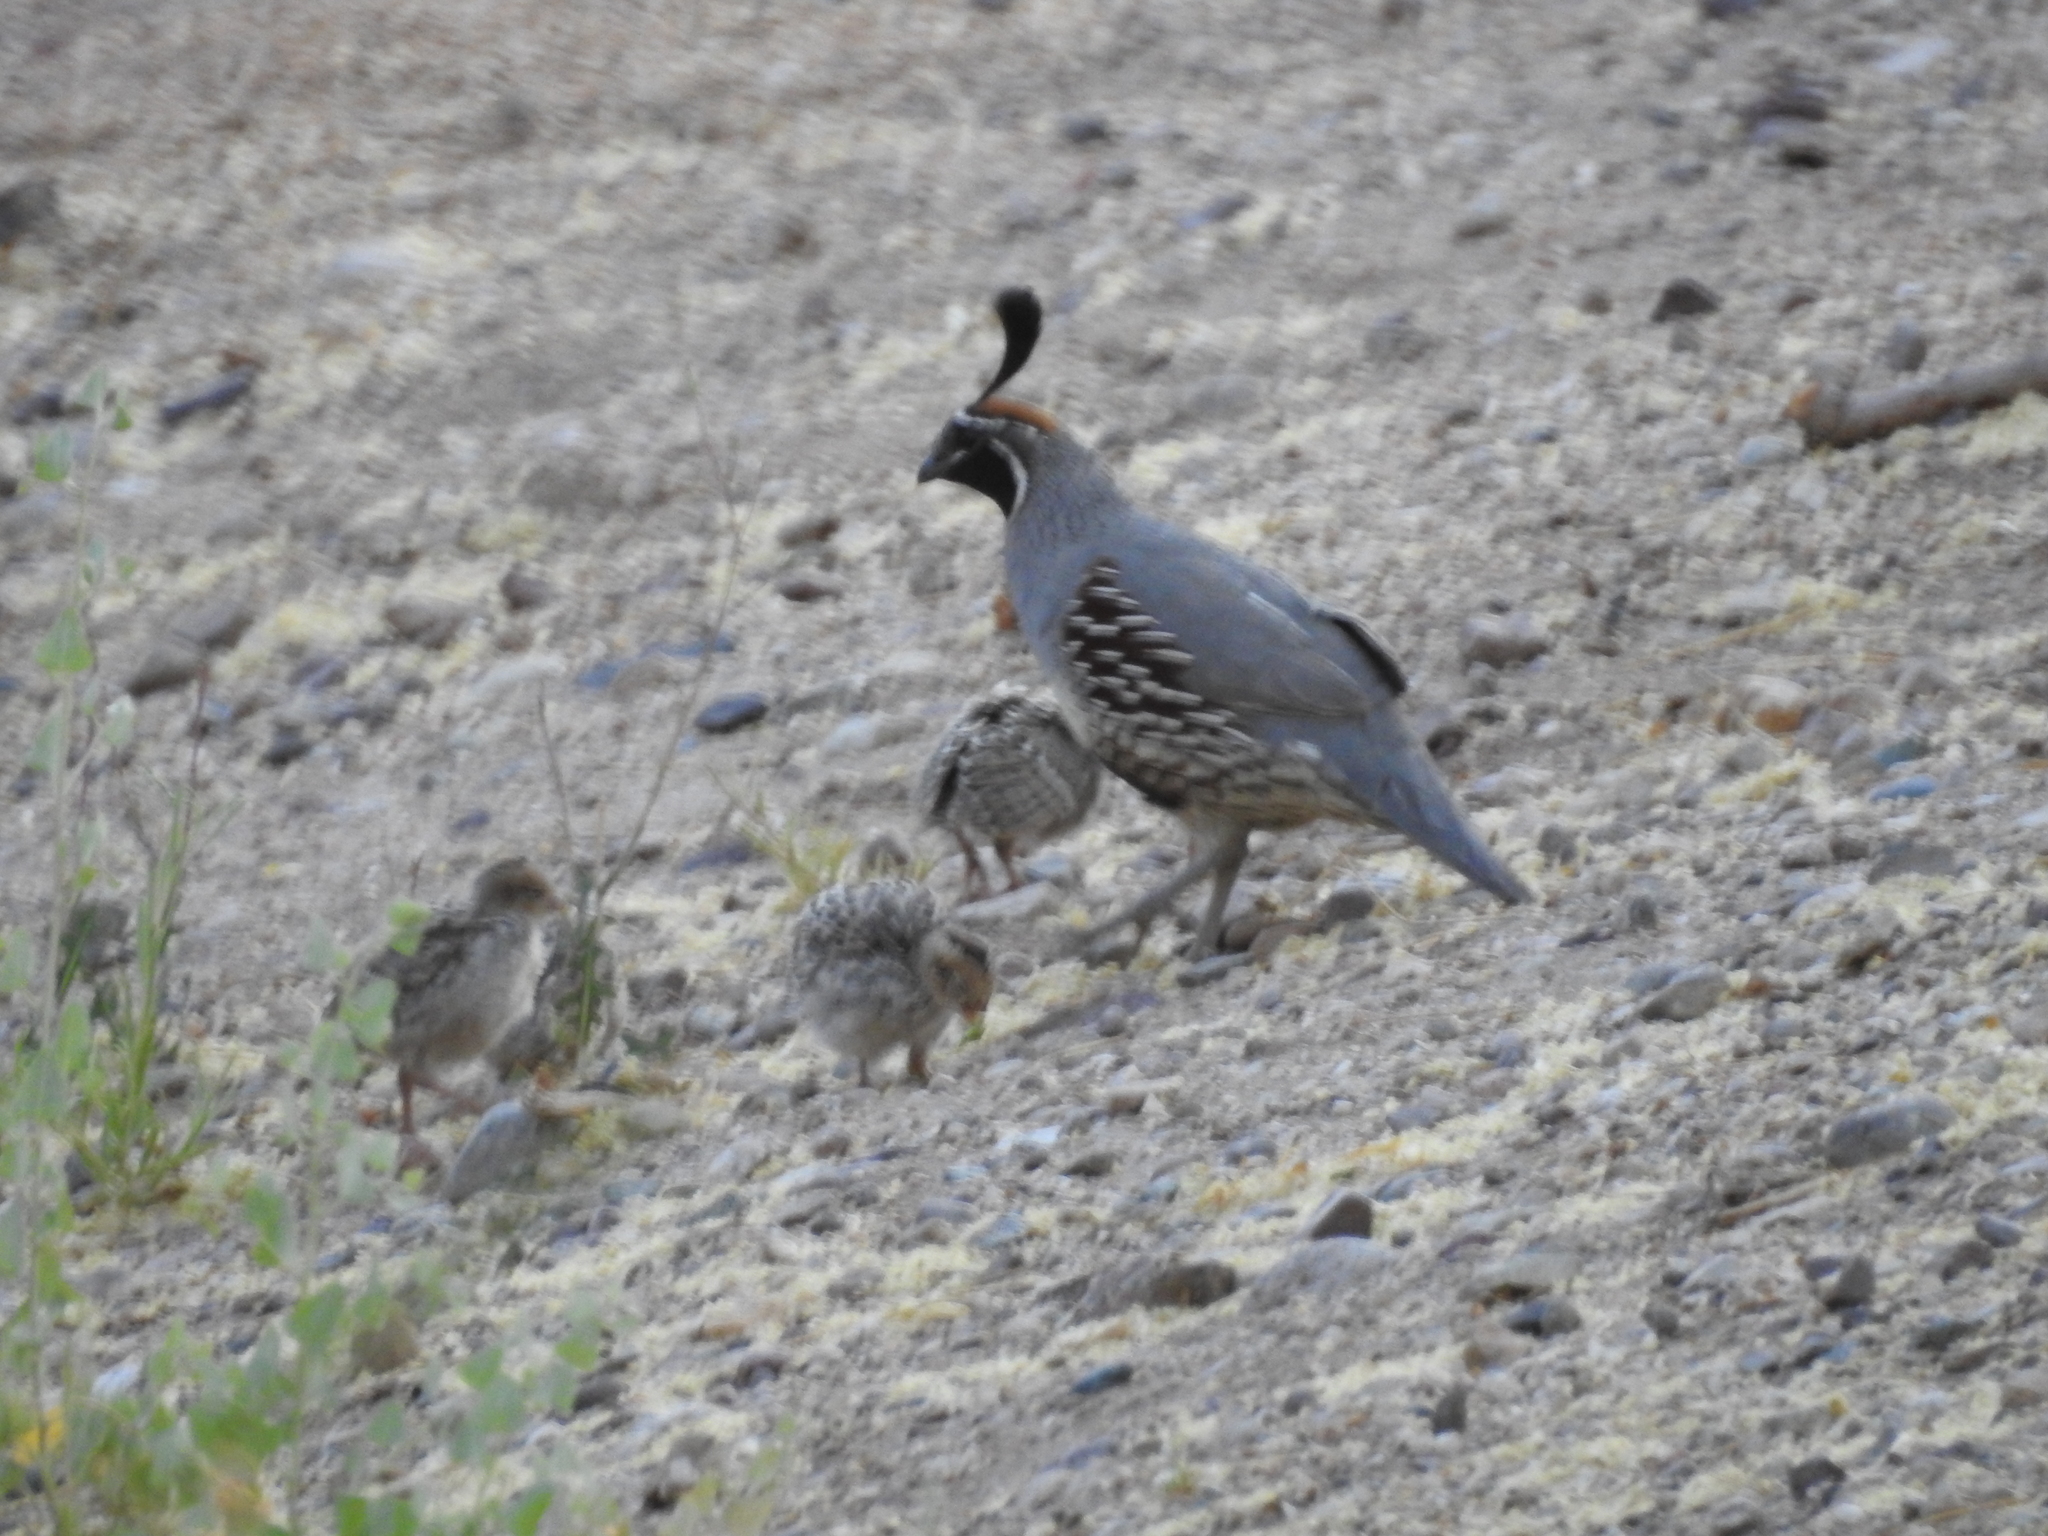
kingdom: Animalia
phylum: Chordata
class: Aves
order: Galliformes
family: Odontophoridae
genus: Callipepla
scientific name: Callipepla gambelii
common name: Gambel's quail
